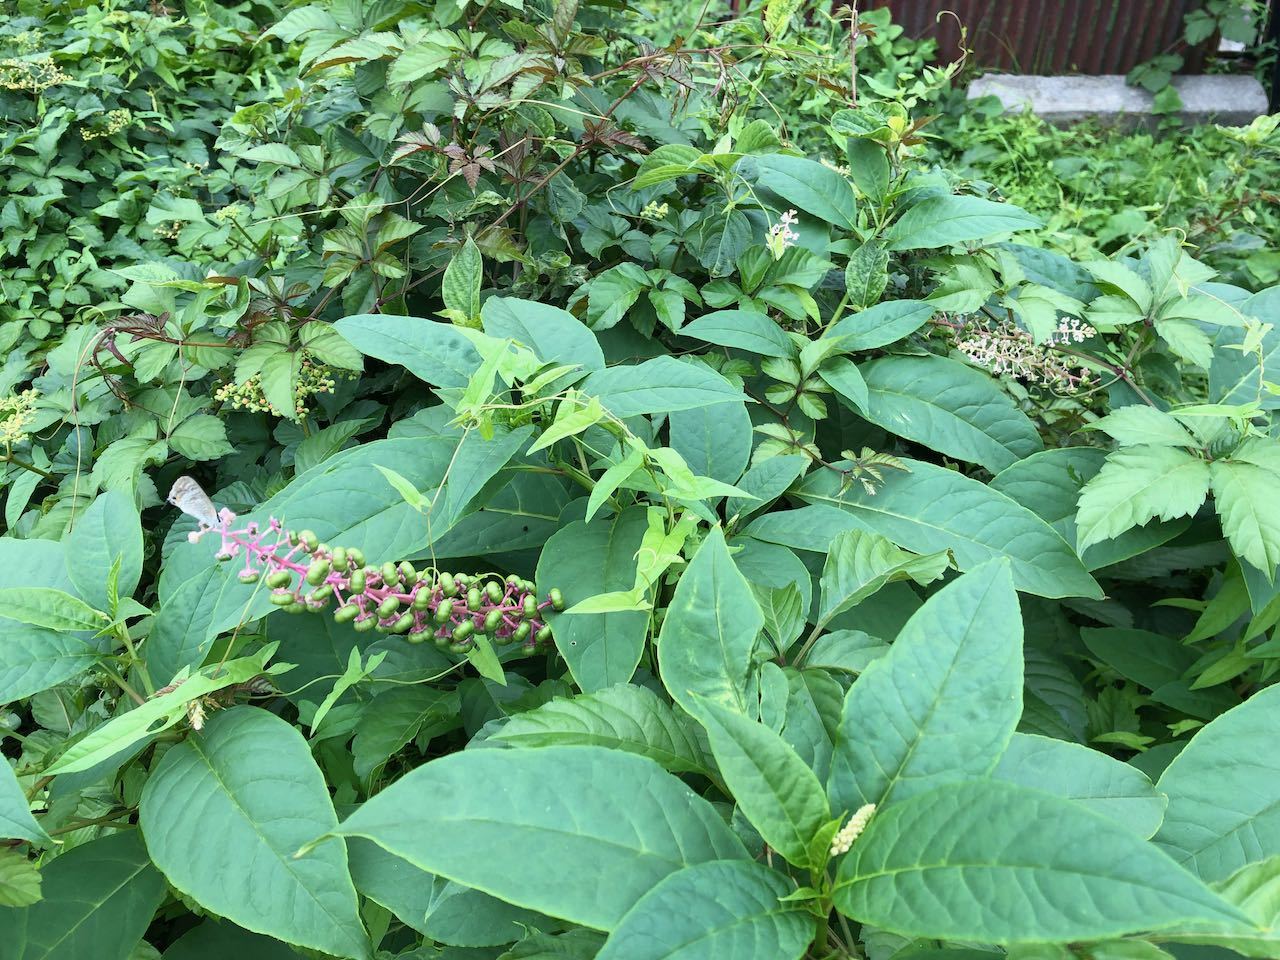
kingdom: Plantae
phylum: Tracheophyta
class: Magnoliopsida
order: Caryophyllales
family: Phytolaccaceae
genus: Phytolacca
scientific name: Phytolacca americana
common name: American pokeweed
